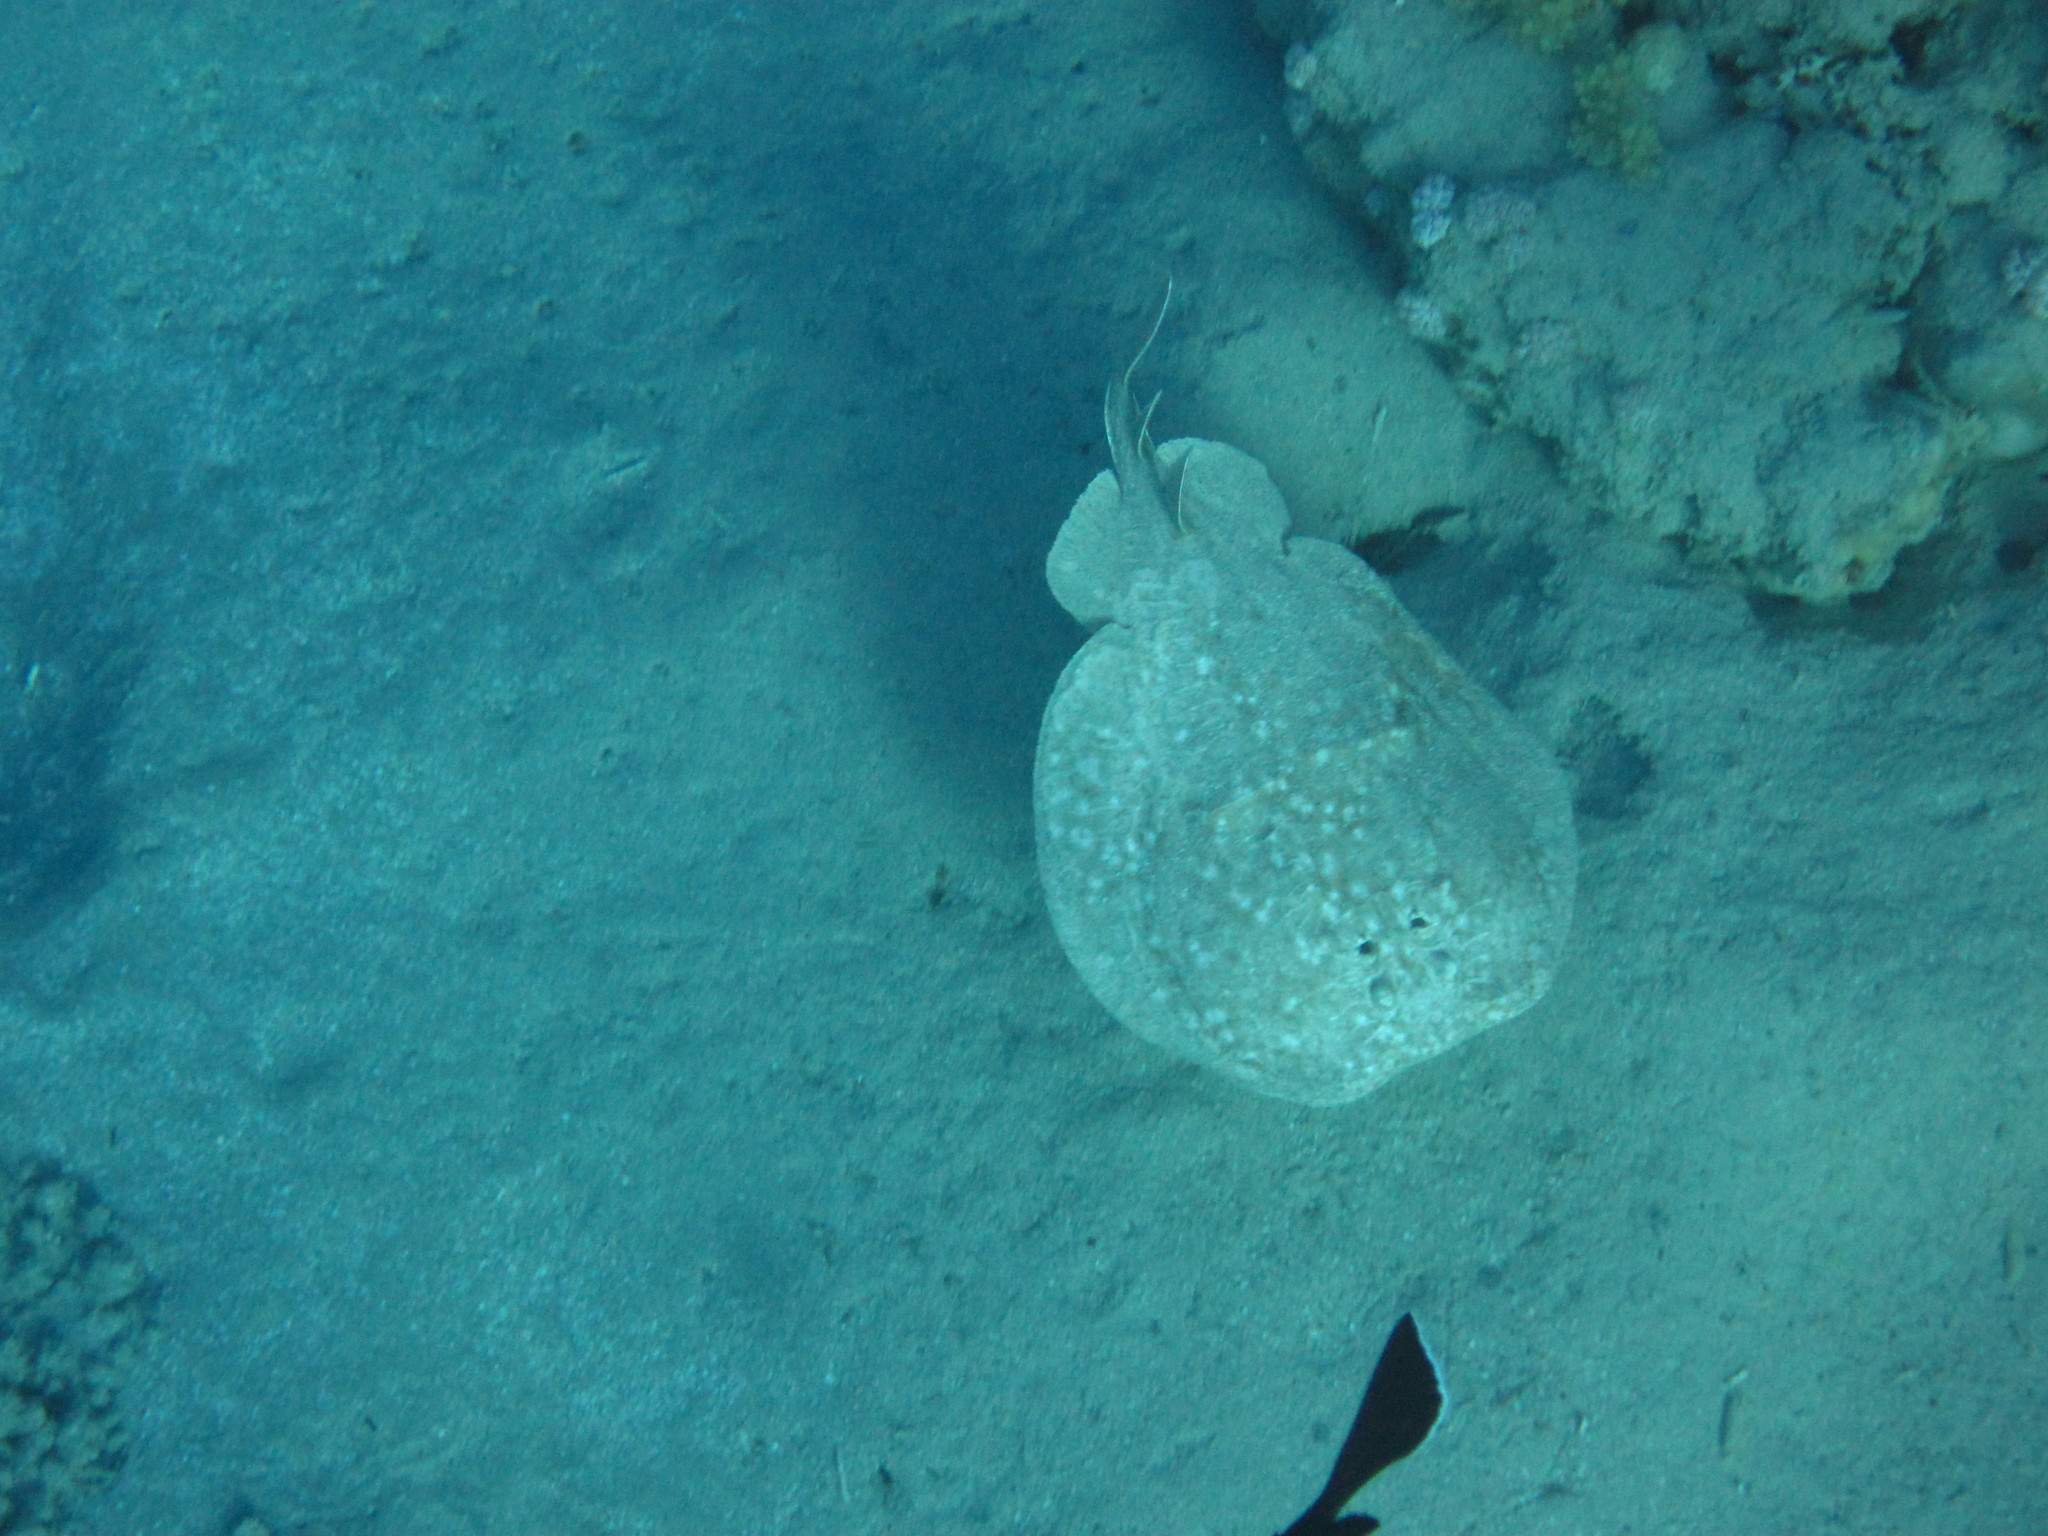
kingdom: Animalia
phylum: Chordata
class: Elasmobranchii
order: Torpediniformes
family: Torpedinidae
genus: Torpedo
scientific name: Torpedo panthera
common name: Leopard torpedo
